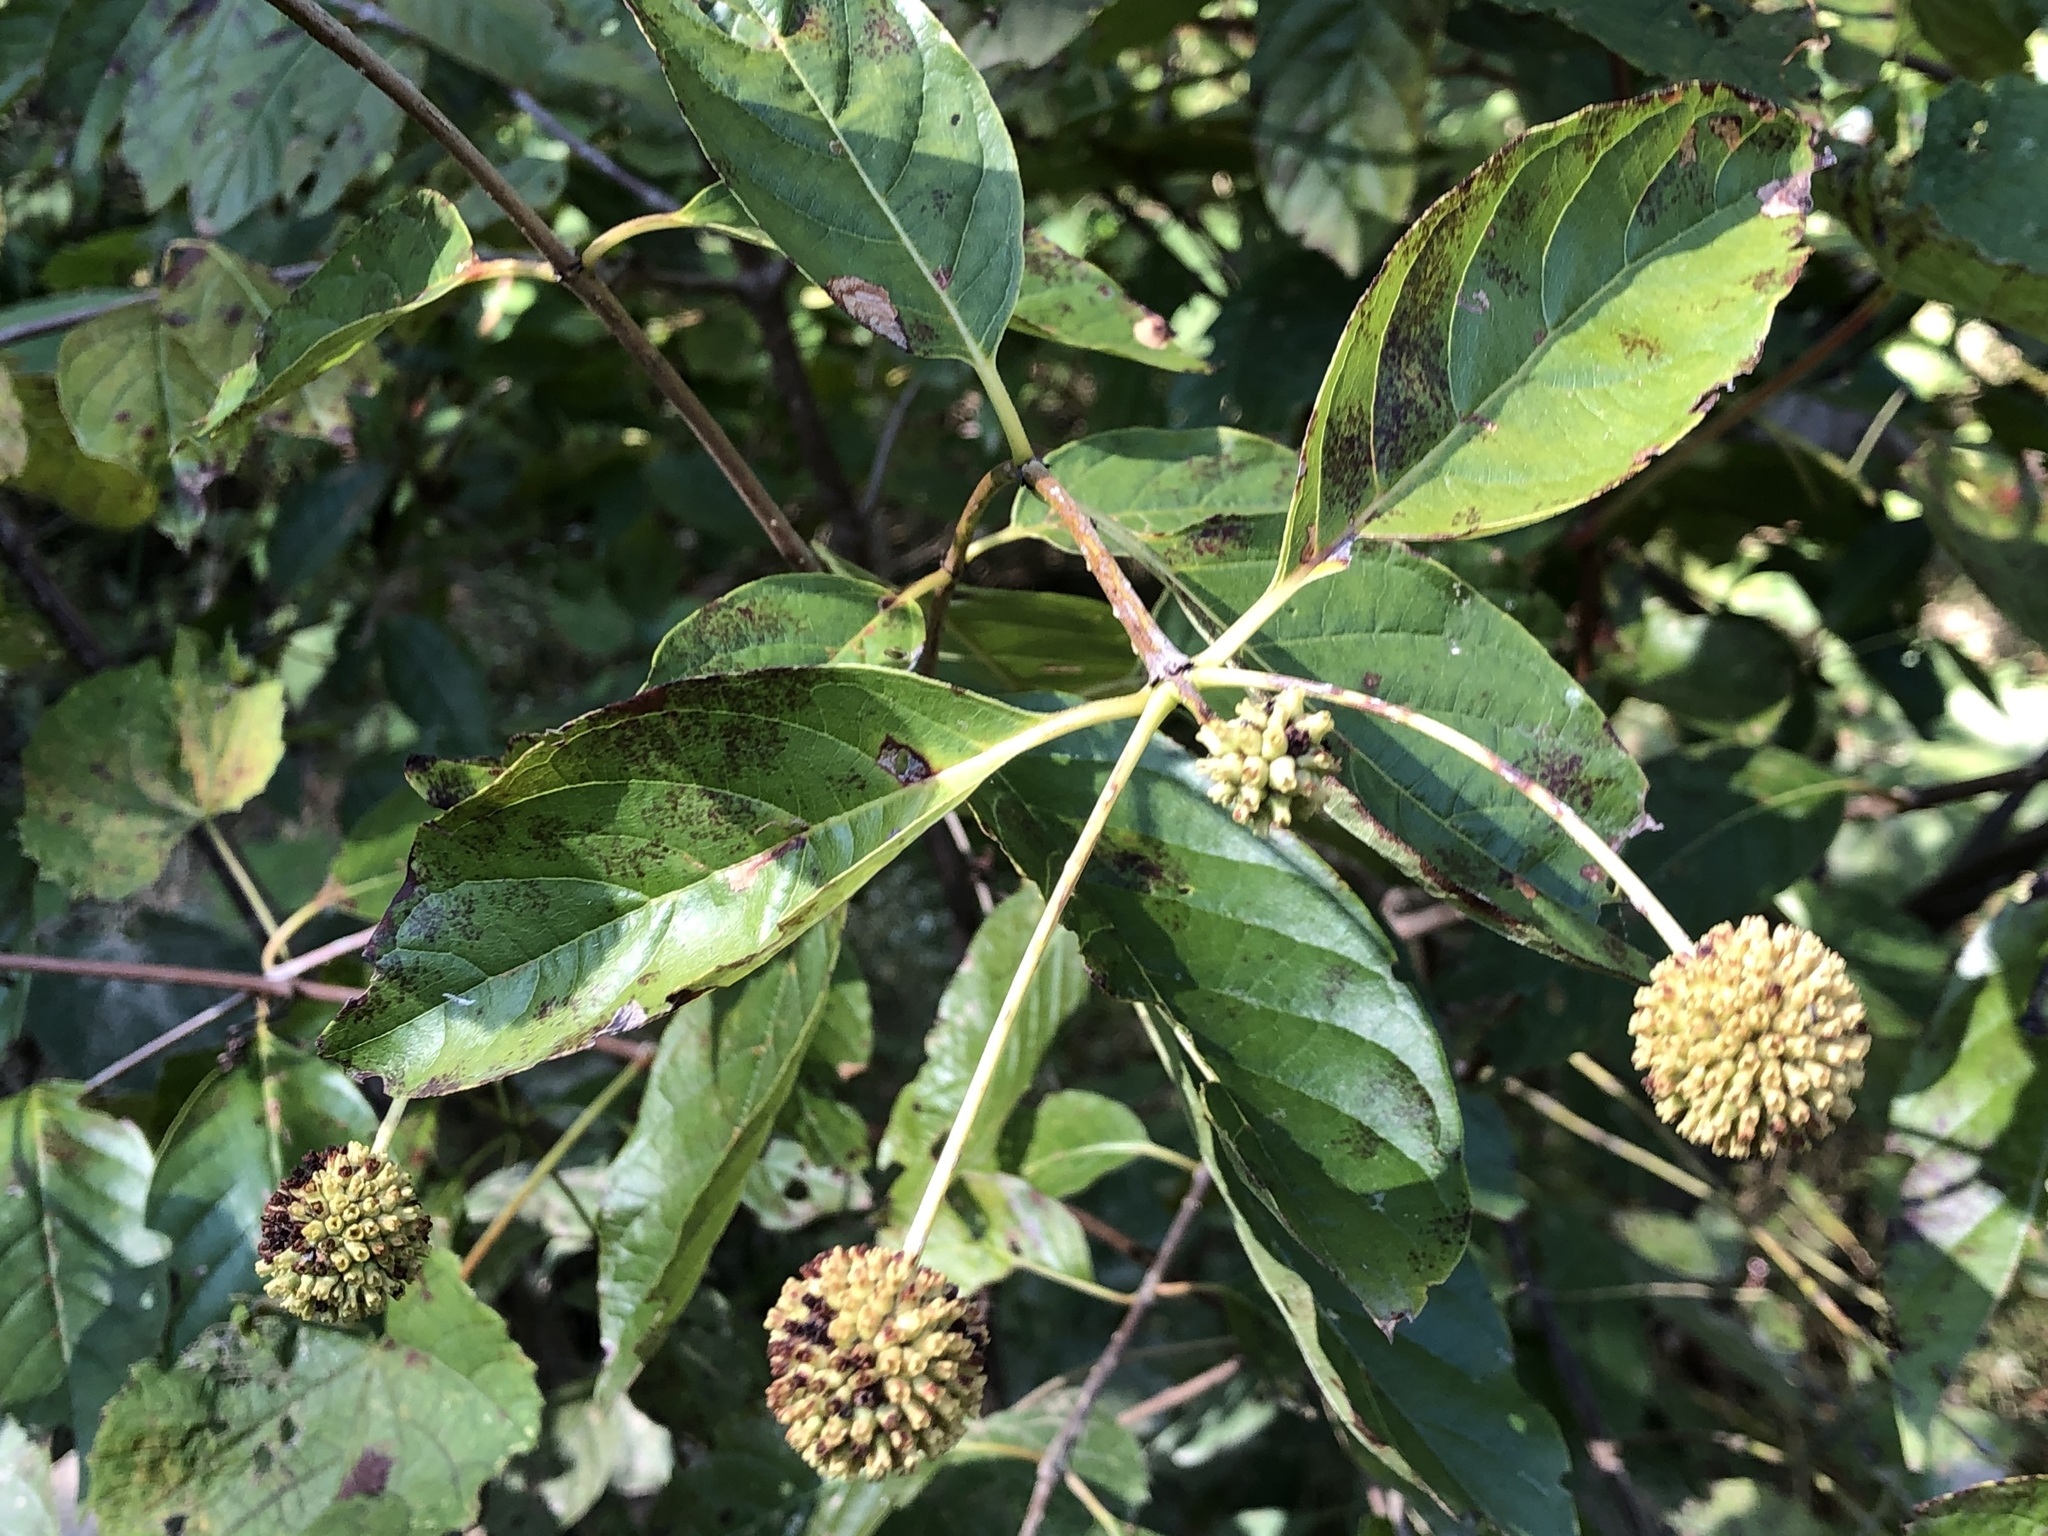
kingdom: Plantae
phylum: Tracheophyta
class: Magnoliopsida
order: Gentianales
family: Rubiaceae
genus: Cephalanthus
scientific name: Cephalanthus occidentalis
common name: Button-willow
